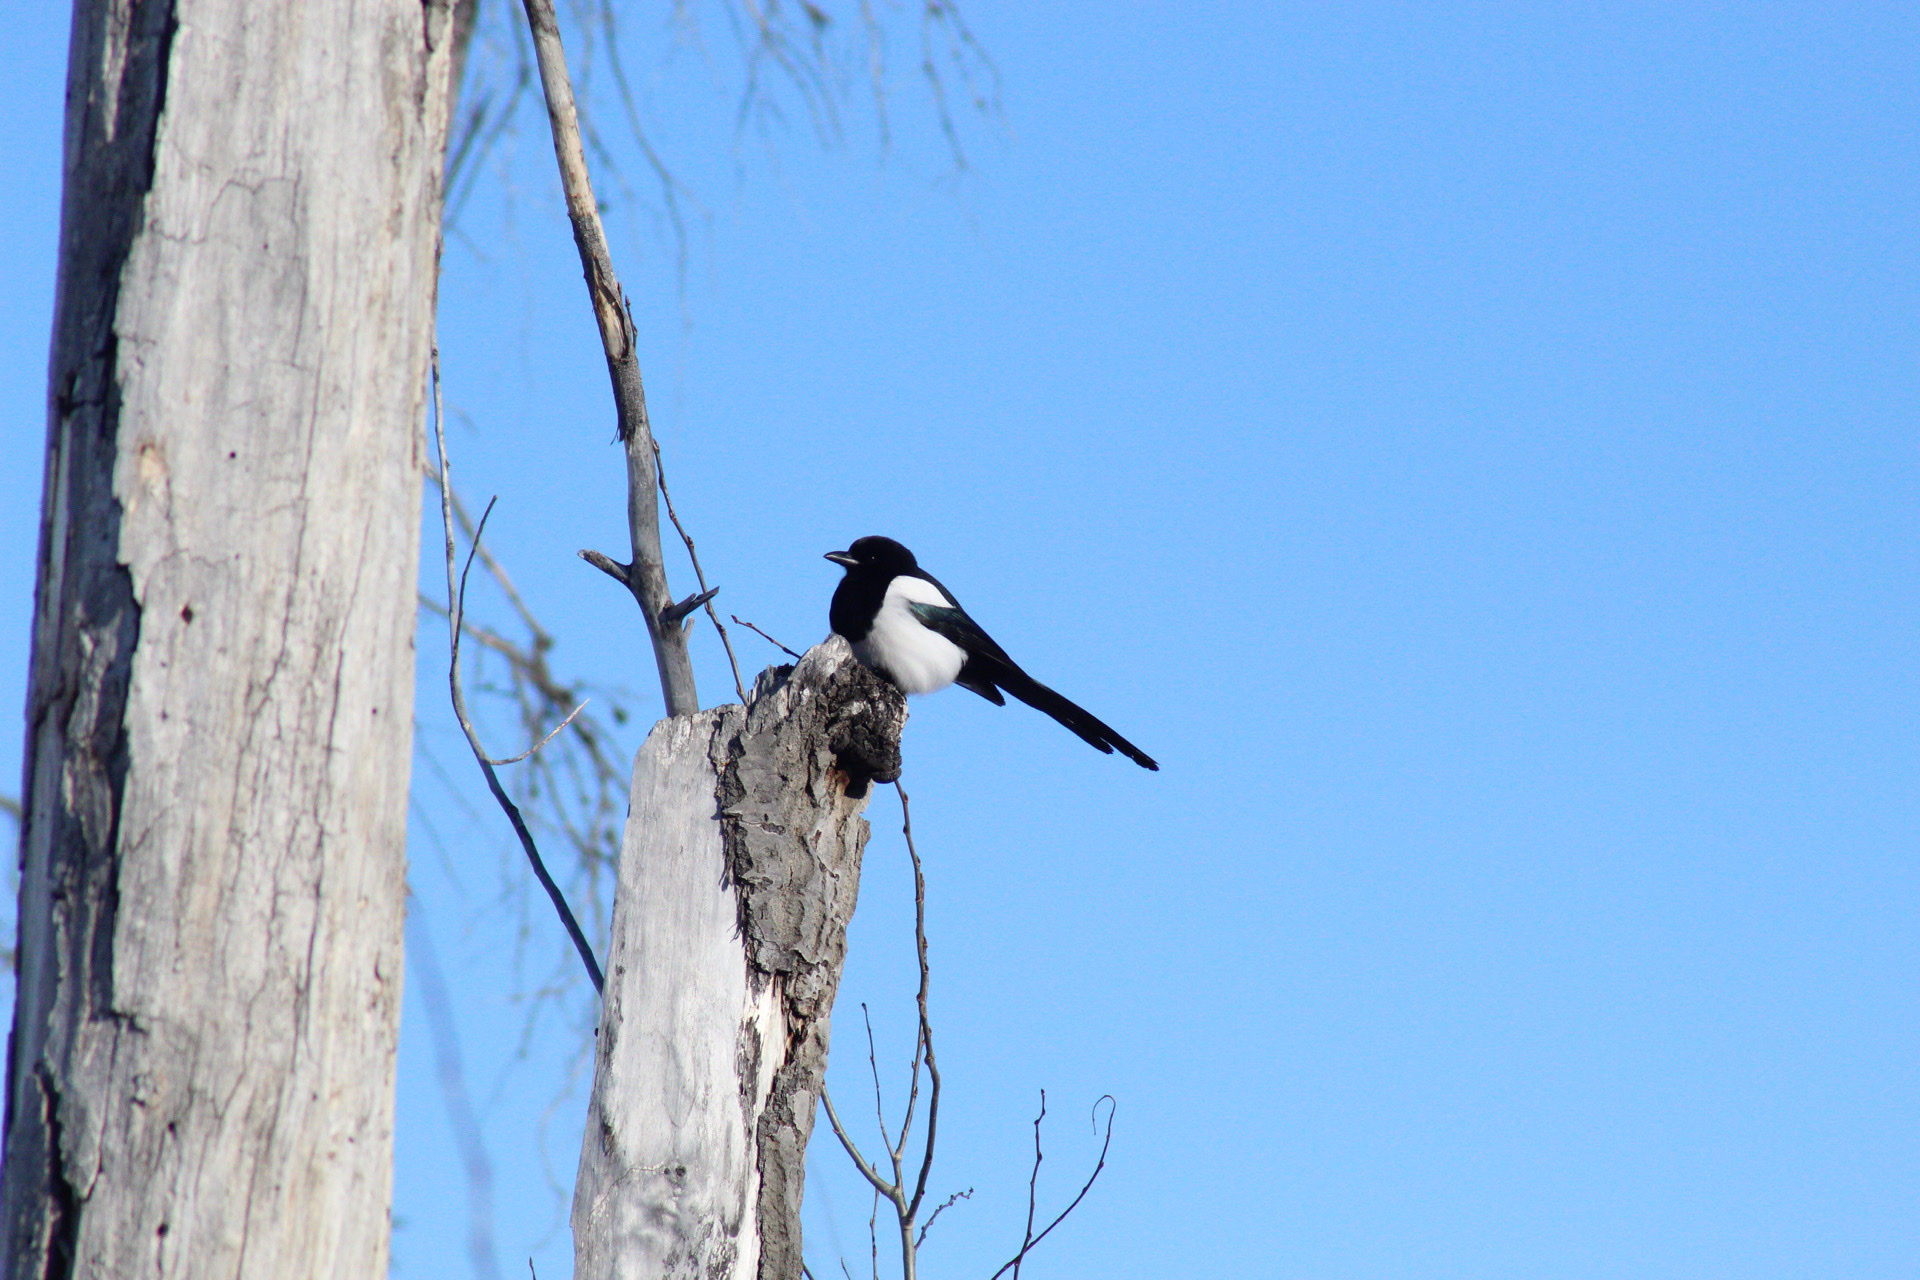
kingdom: Animalia
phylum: Chordata
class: Aves
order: Passeriformes
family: Corvidae
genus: Pica
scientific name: Pica hudsonia
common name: Black-billed magpie
